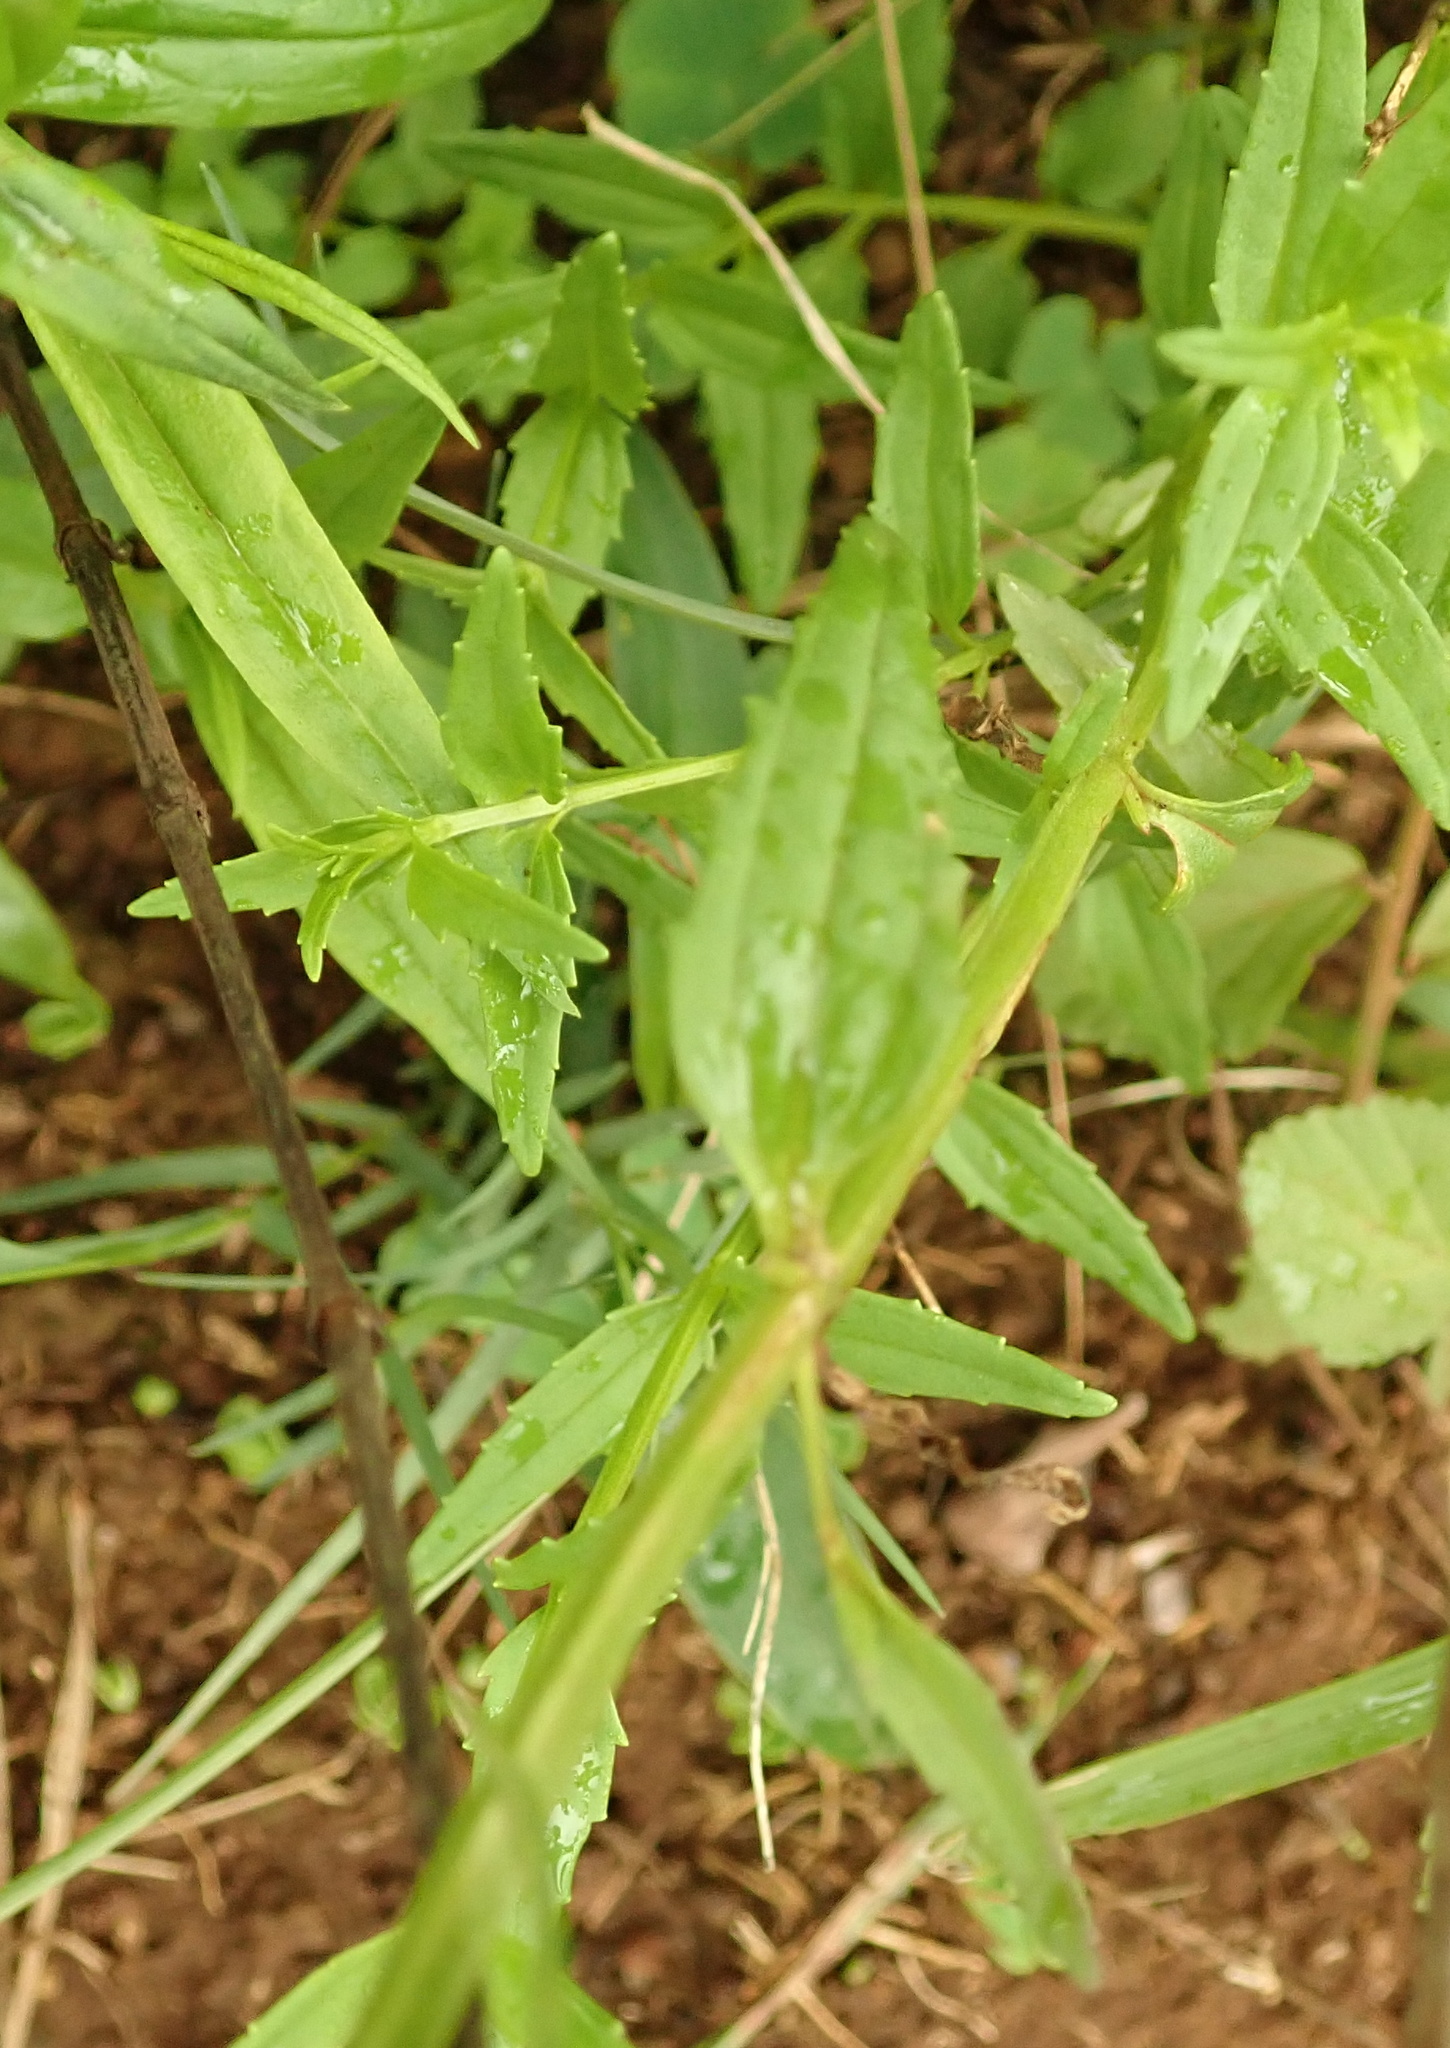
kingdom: Plantae
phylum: Tracheophyta
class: Magnoliopsida
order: Lamiales
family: Scrophulariaceae
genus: Nemesia
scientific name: Nemesia denticulata
